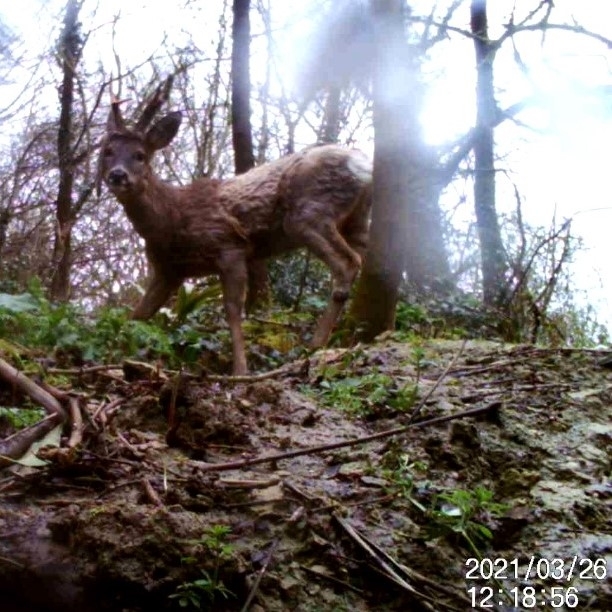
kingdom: Animalia
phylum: Chordata
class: Mammalia
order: Artiodactyla
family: Cervidae
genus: Capreolus
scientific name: Capreolus capreolus
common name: Western roe deer
